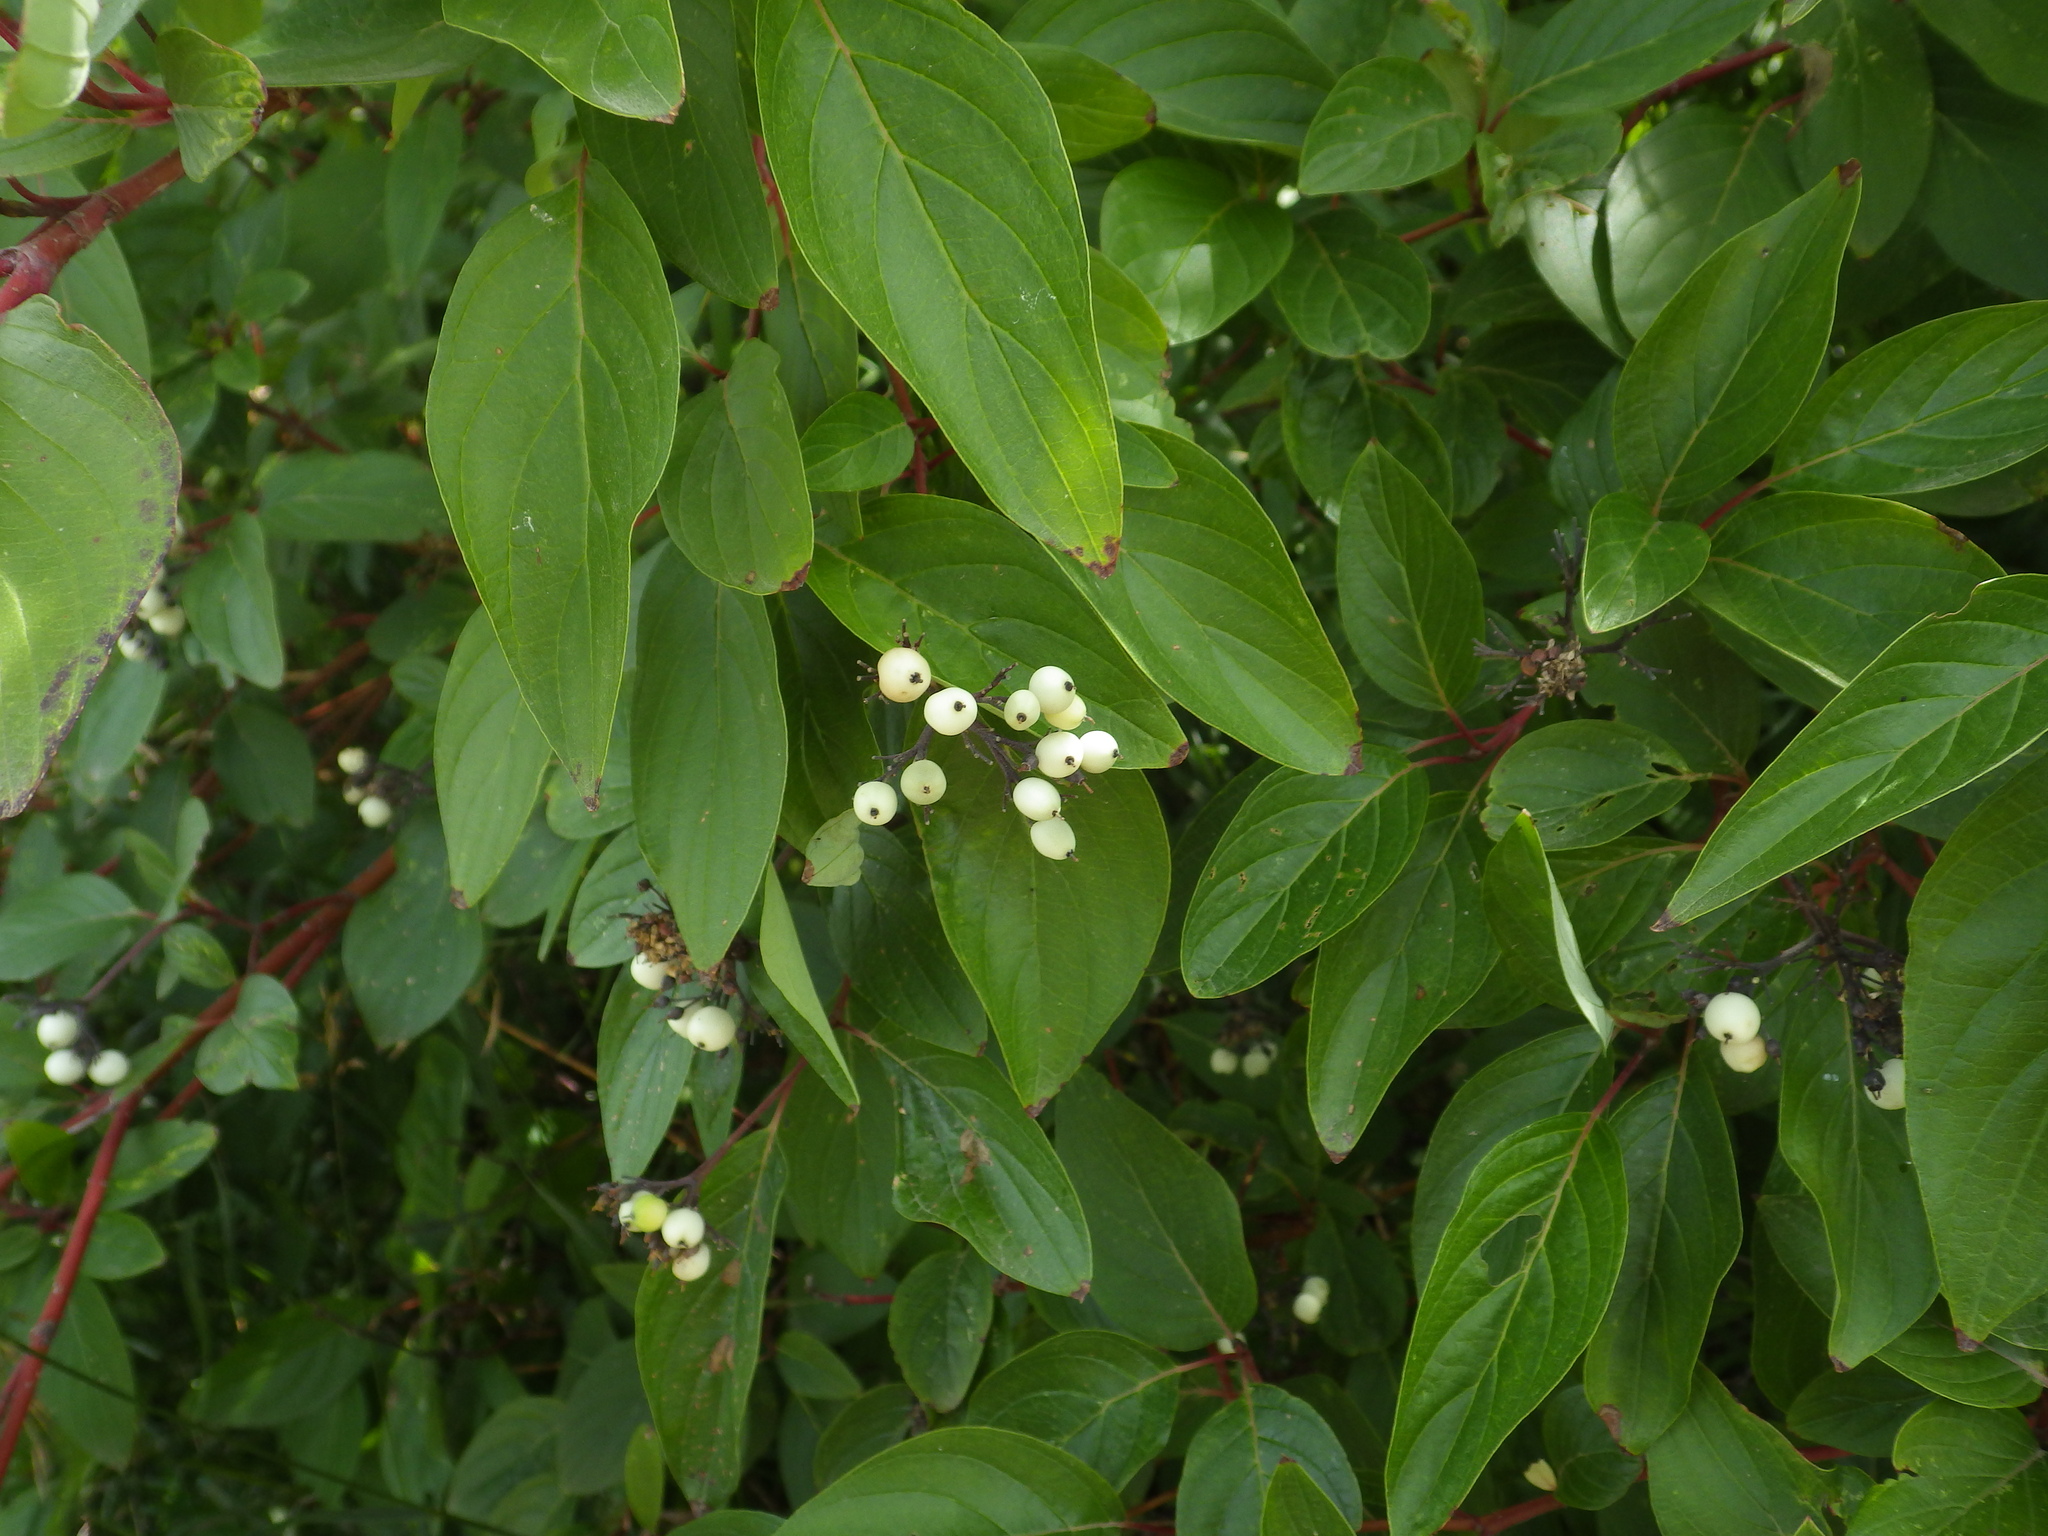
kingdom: Plantae
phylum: Tracheophyta
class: Magnoliopsida
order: Cornales
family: Cornaceae
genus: Cornus
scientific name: Cornus sericea
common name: Red-osier dogwood
